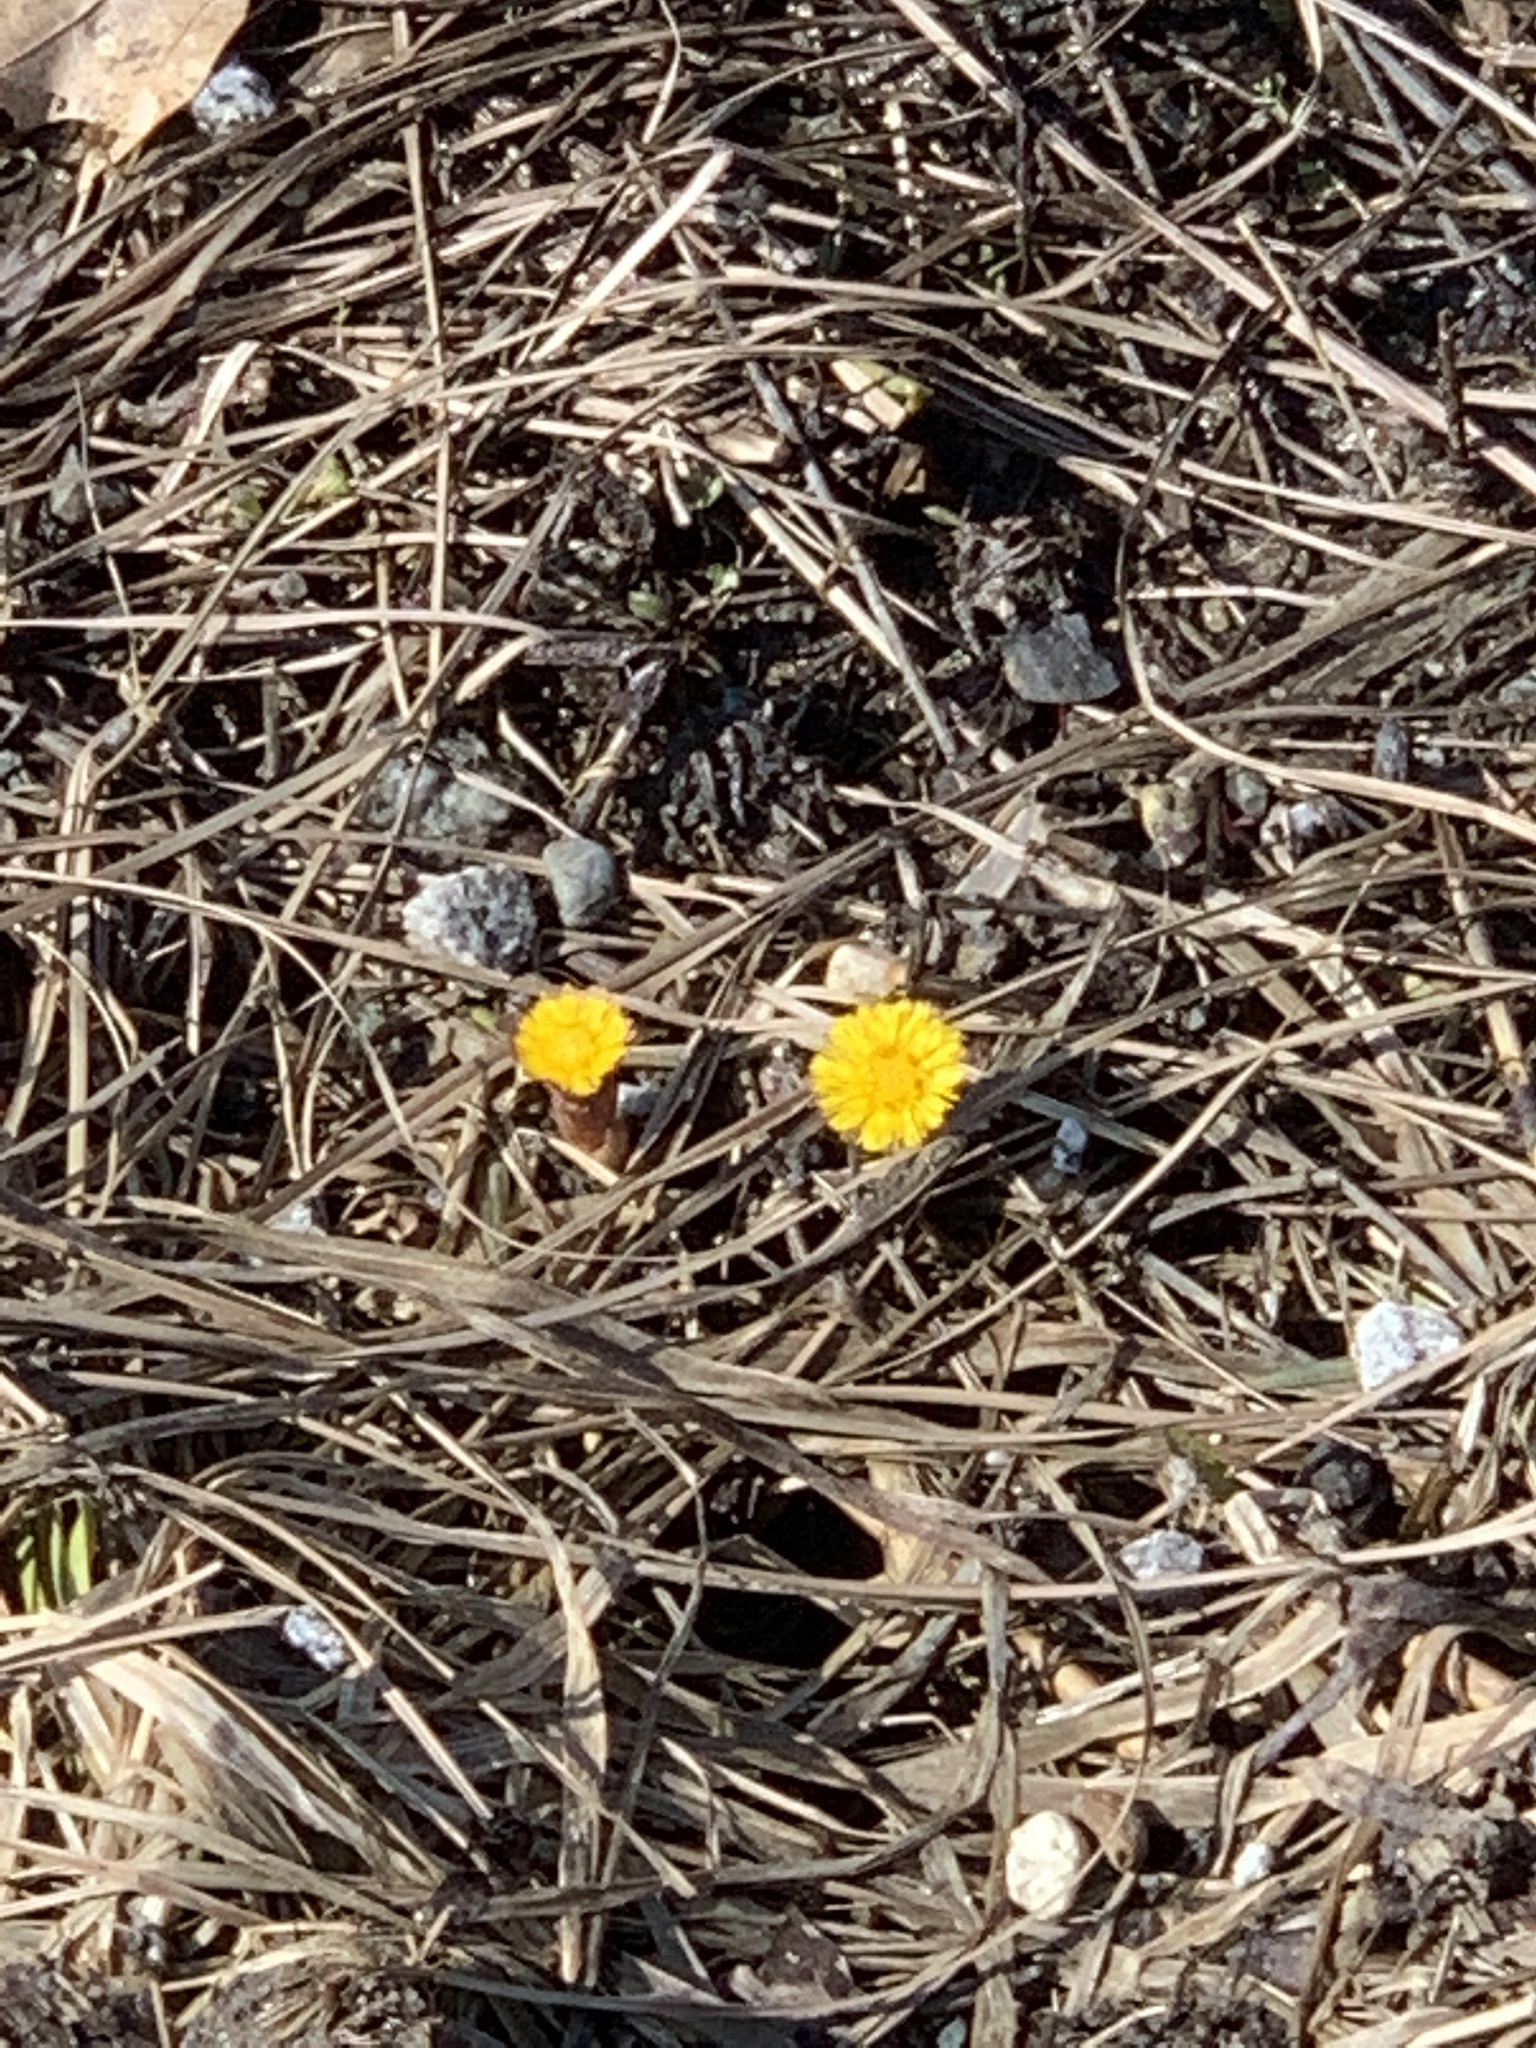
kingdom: Plantae
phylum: Tracheophyta
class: Magnoliopsida
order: Asterales
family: Asteraceae
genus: Tussilago
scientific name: Tussilago farfara
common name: Coltsfoot
